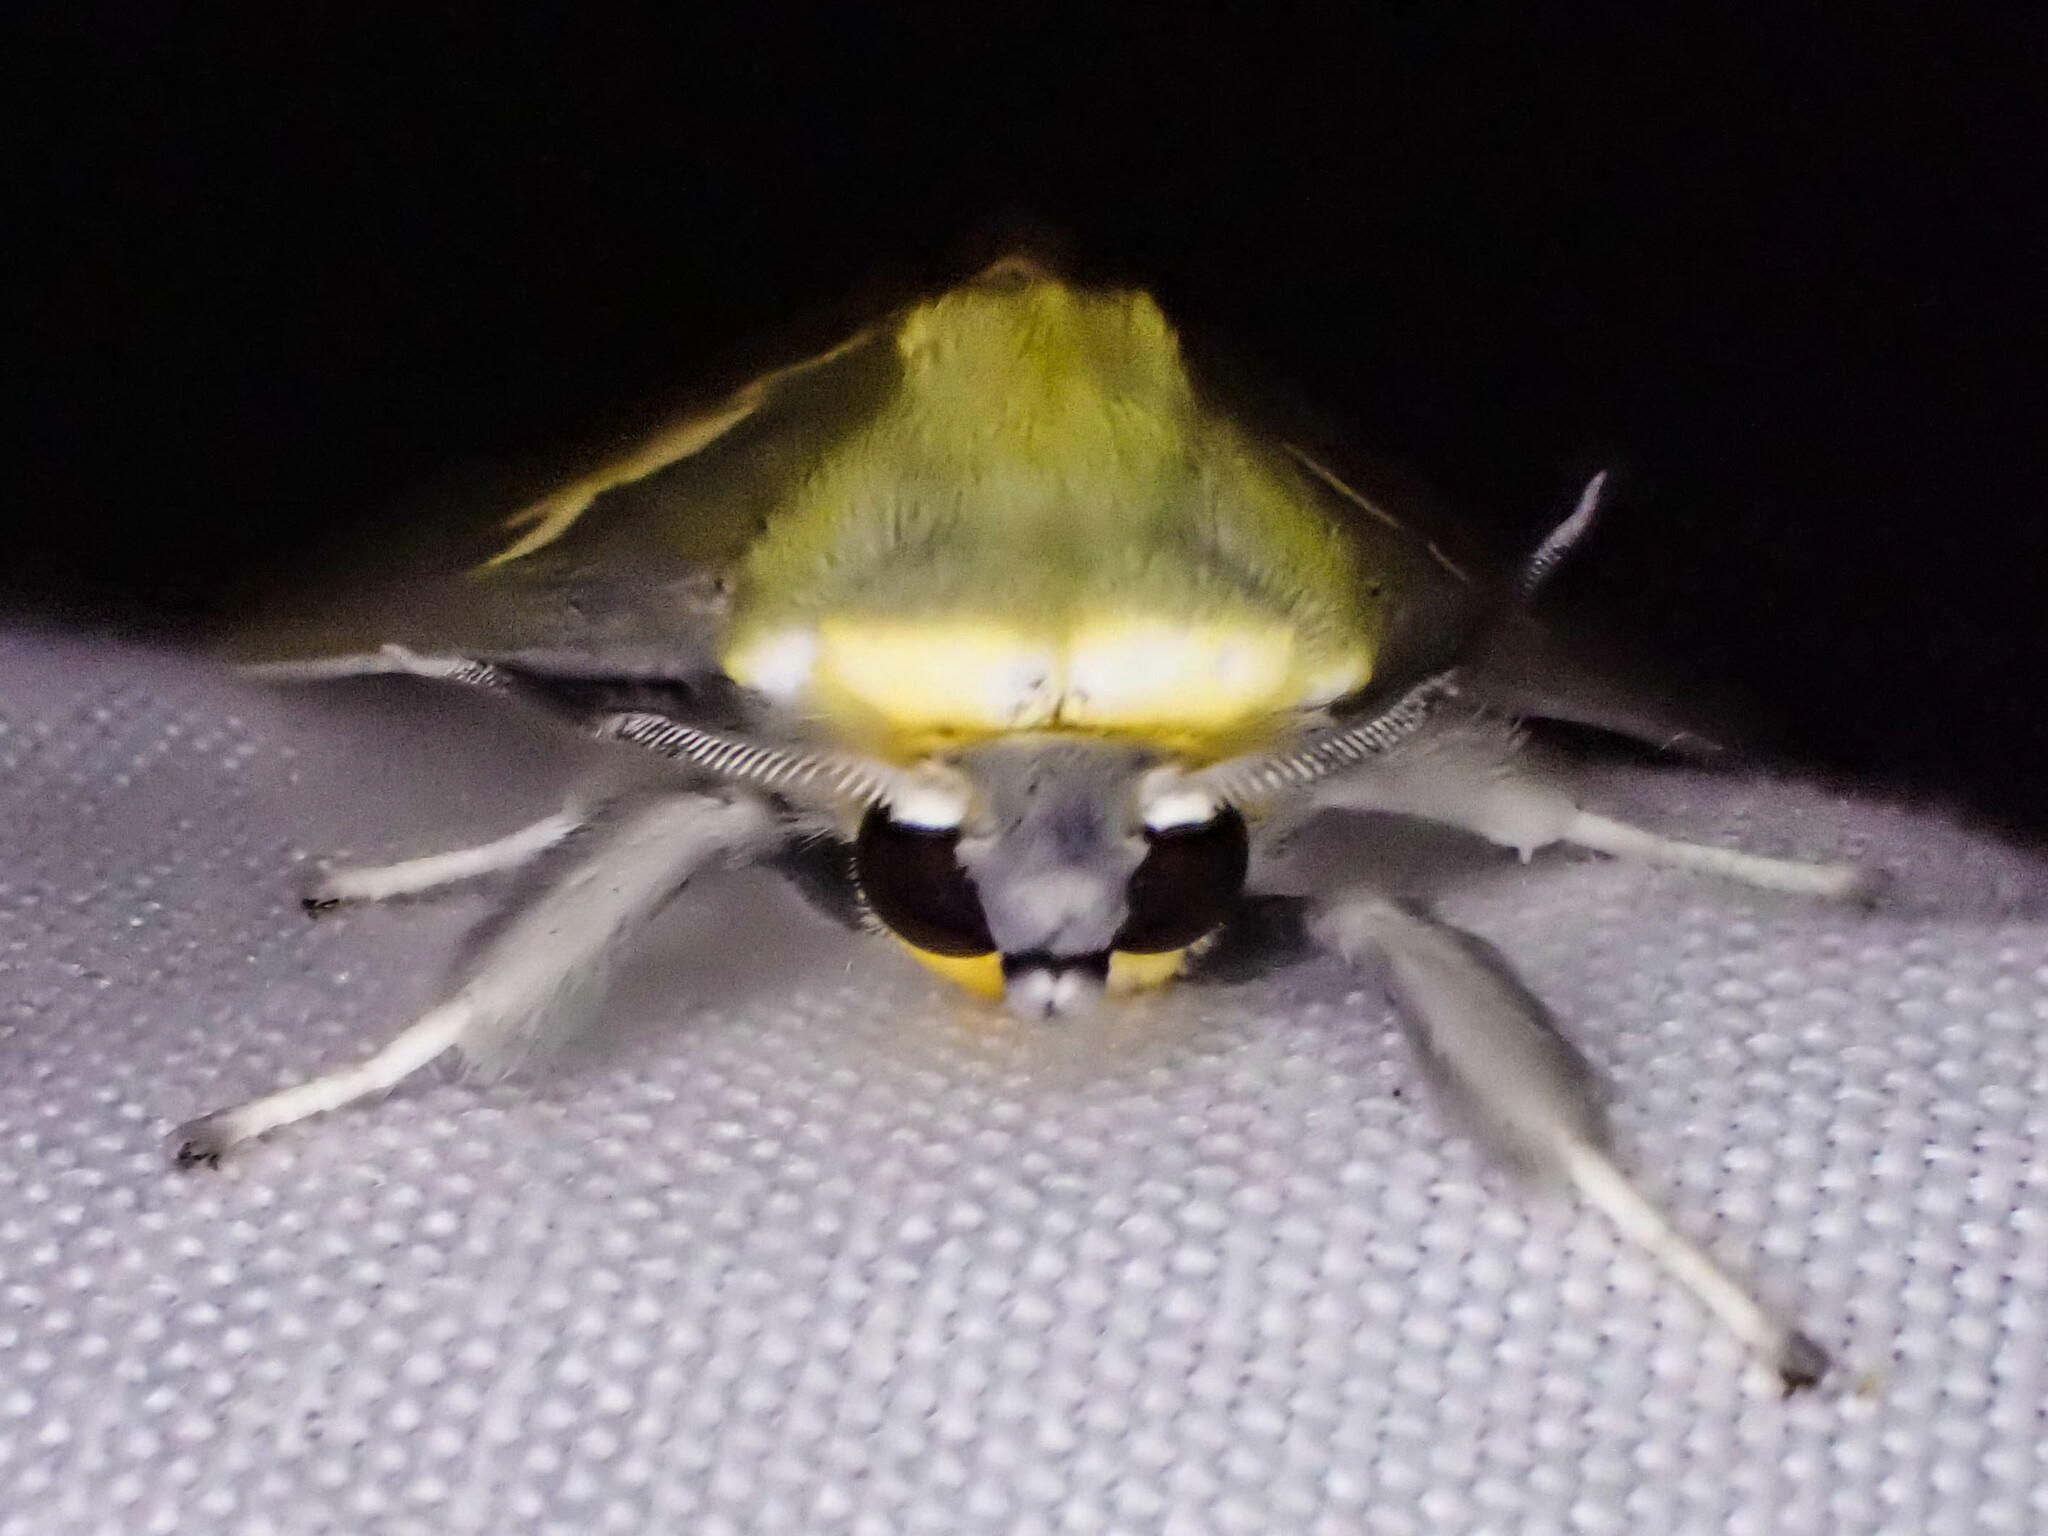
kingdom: Animalia
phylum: Arthropoda
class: Insecta
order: Lepidoptera
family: Erebidae
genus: Castrica
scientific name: Castrica phalaenoides
